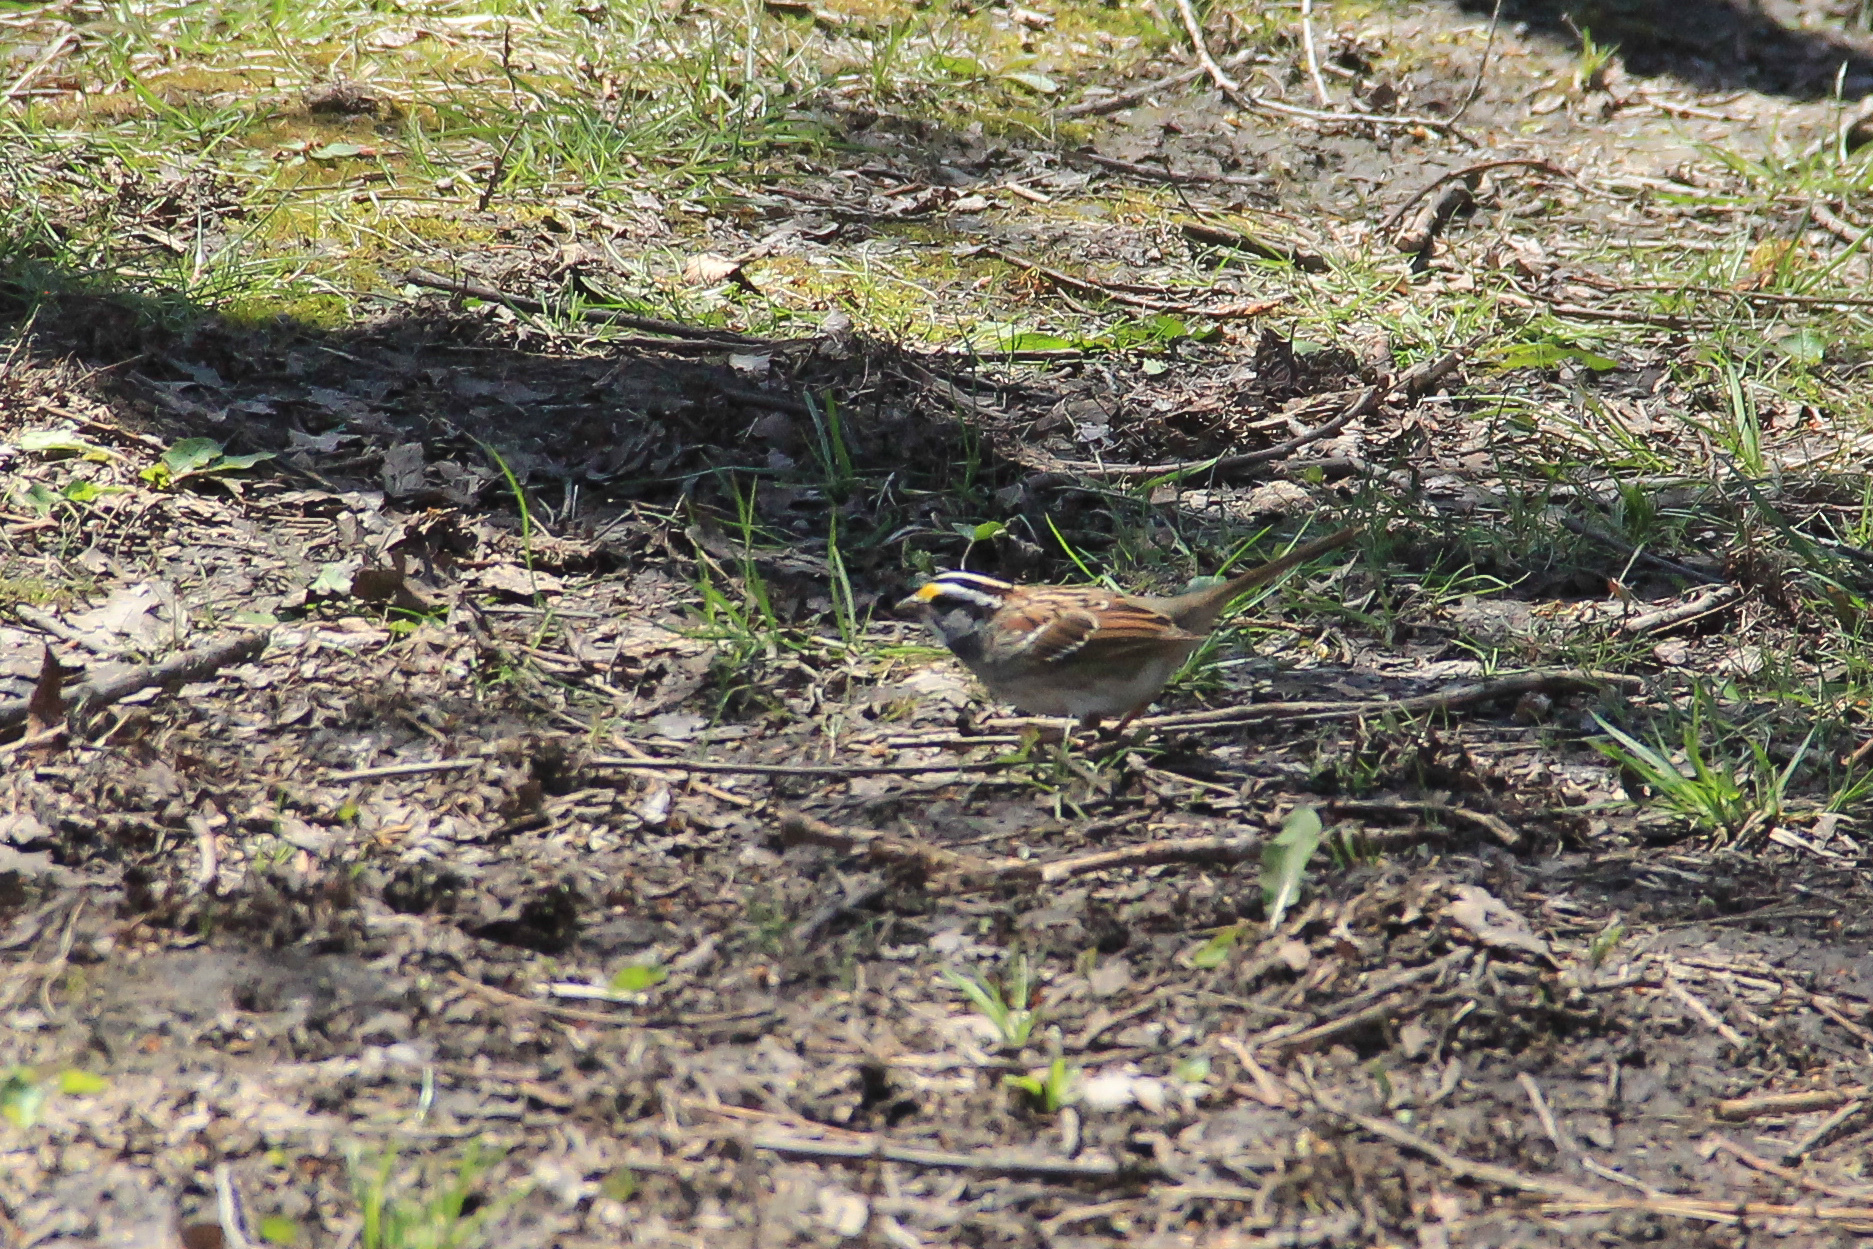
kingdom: Animalia
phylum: Chordata
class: Aves
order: Passeriformes
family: Passerellidae
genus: Zonotrichia
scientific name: Zonotrichia albicollis
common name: White-throated sparrow
